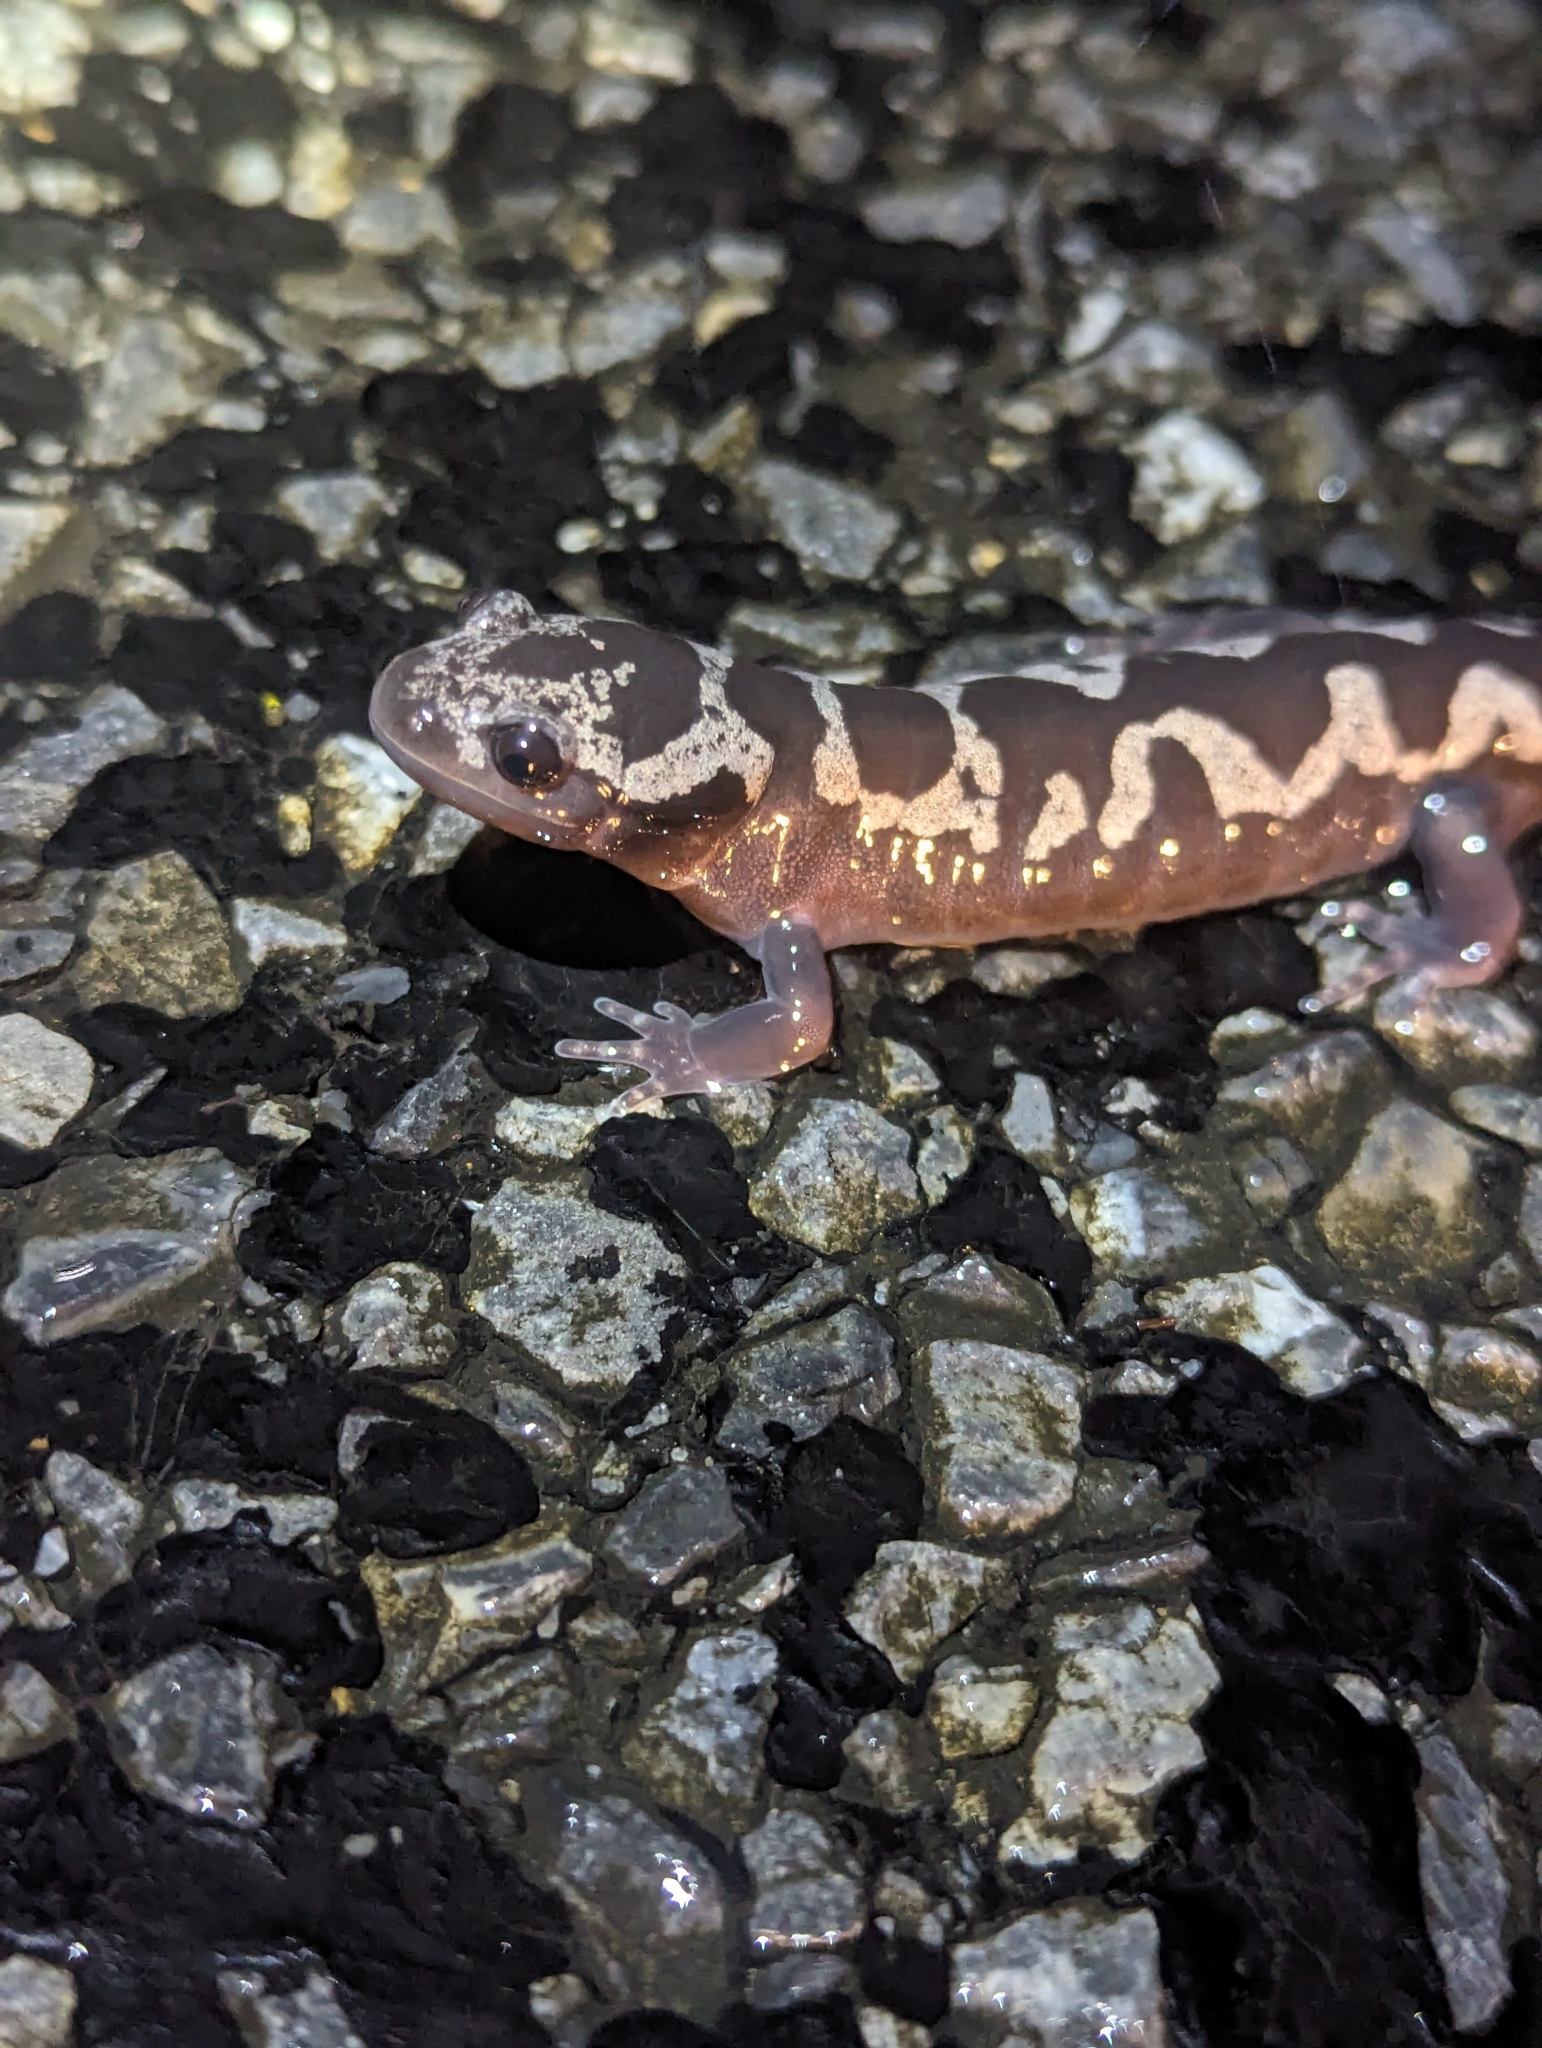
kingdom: Animalia
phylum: Chordata
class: Amphibia
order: Caudata
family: Ambystomatidae
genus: Ambystoma
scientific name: Ambystoma opacum
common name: Marbled salamander
